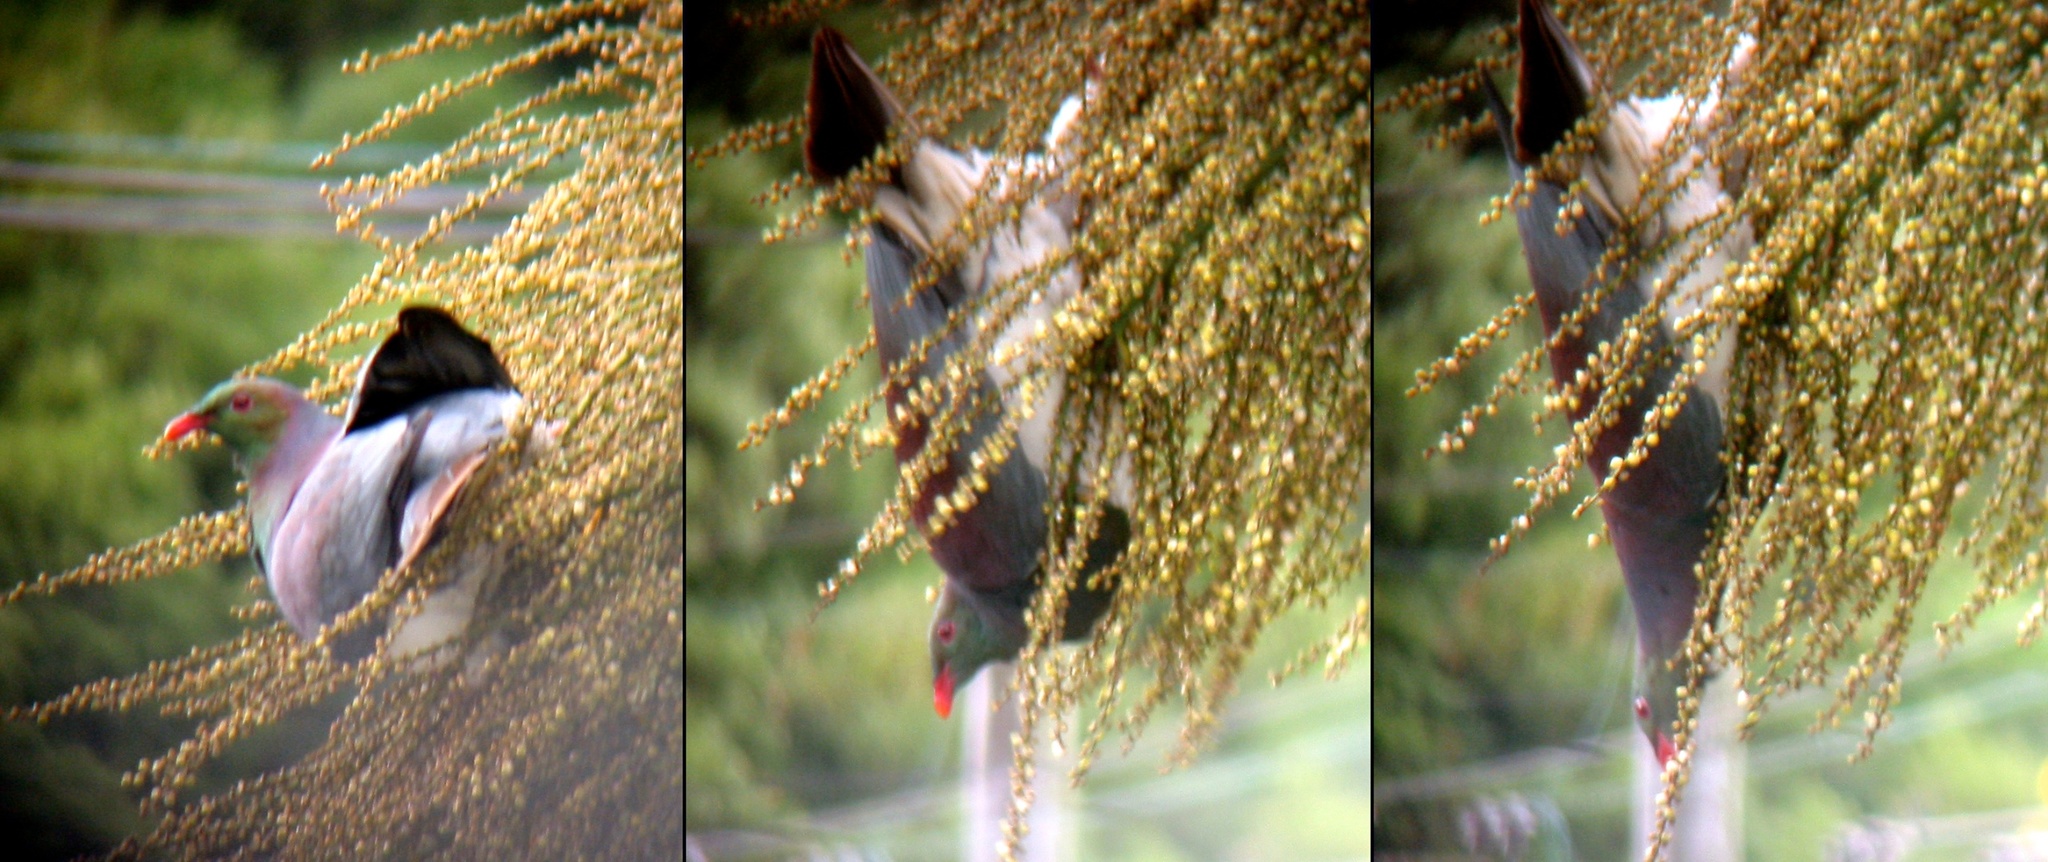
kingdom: Animalia
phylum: Chordata
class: Aves
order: Columbiformes
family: Columbidae
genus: Hemiphaga
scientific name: Hemiphaga novaeseelandiae
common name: New zealand pigeon
